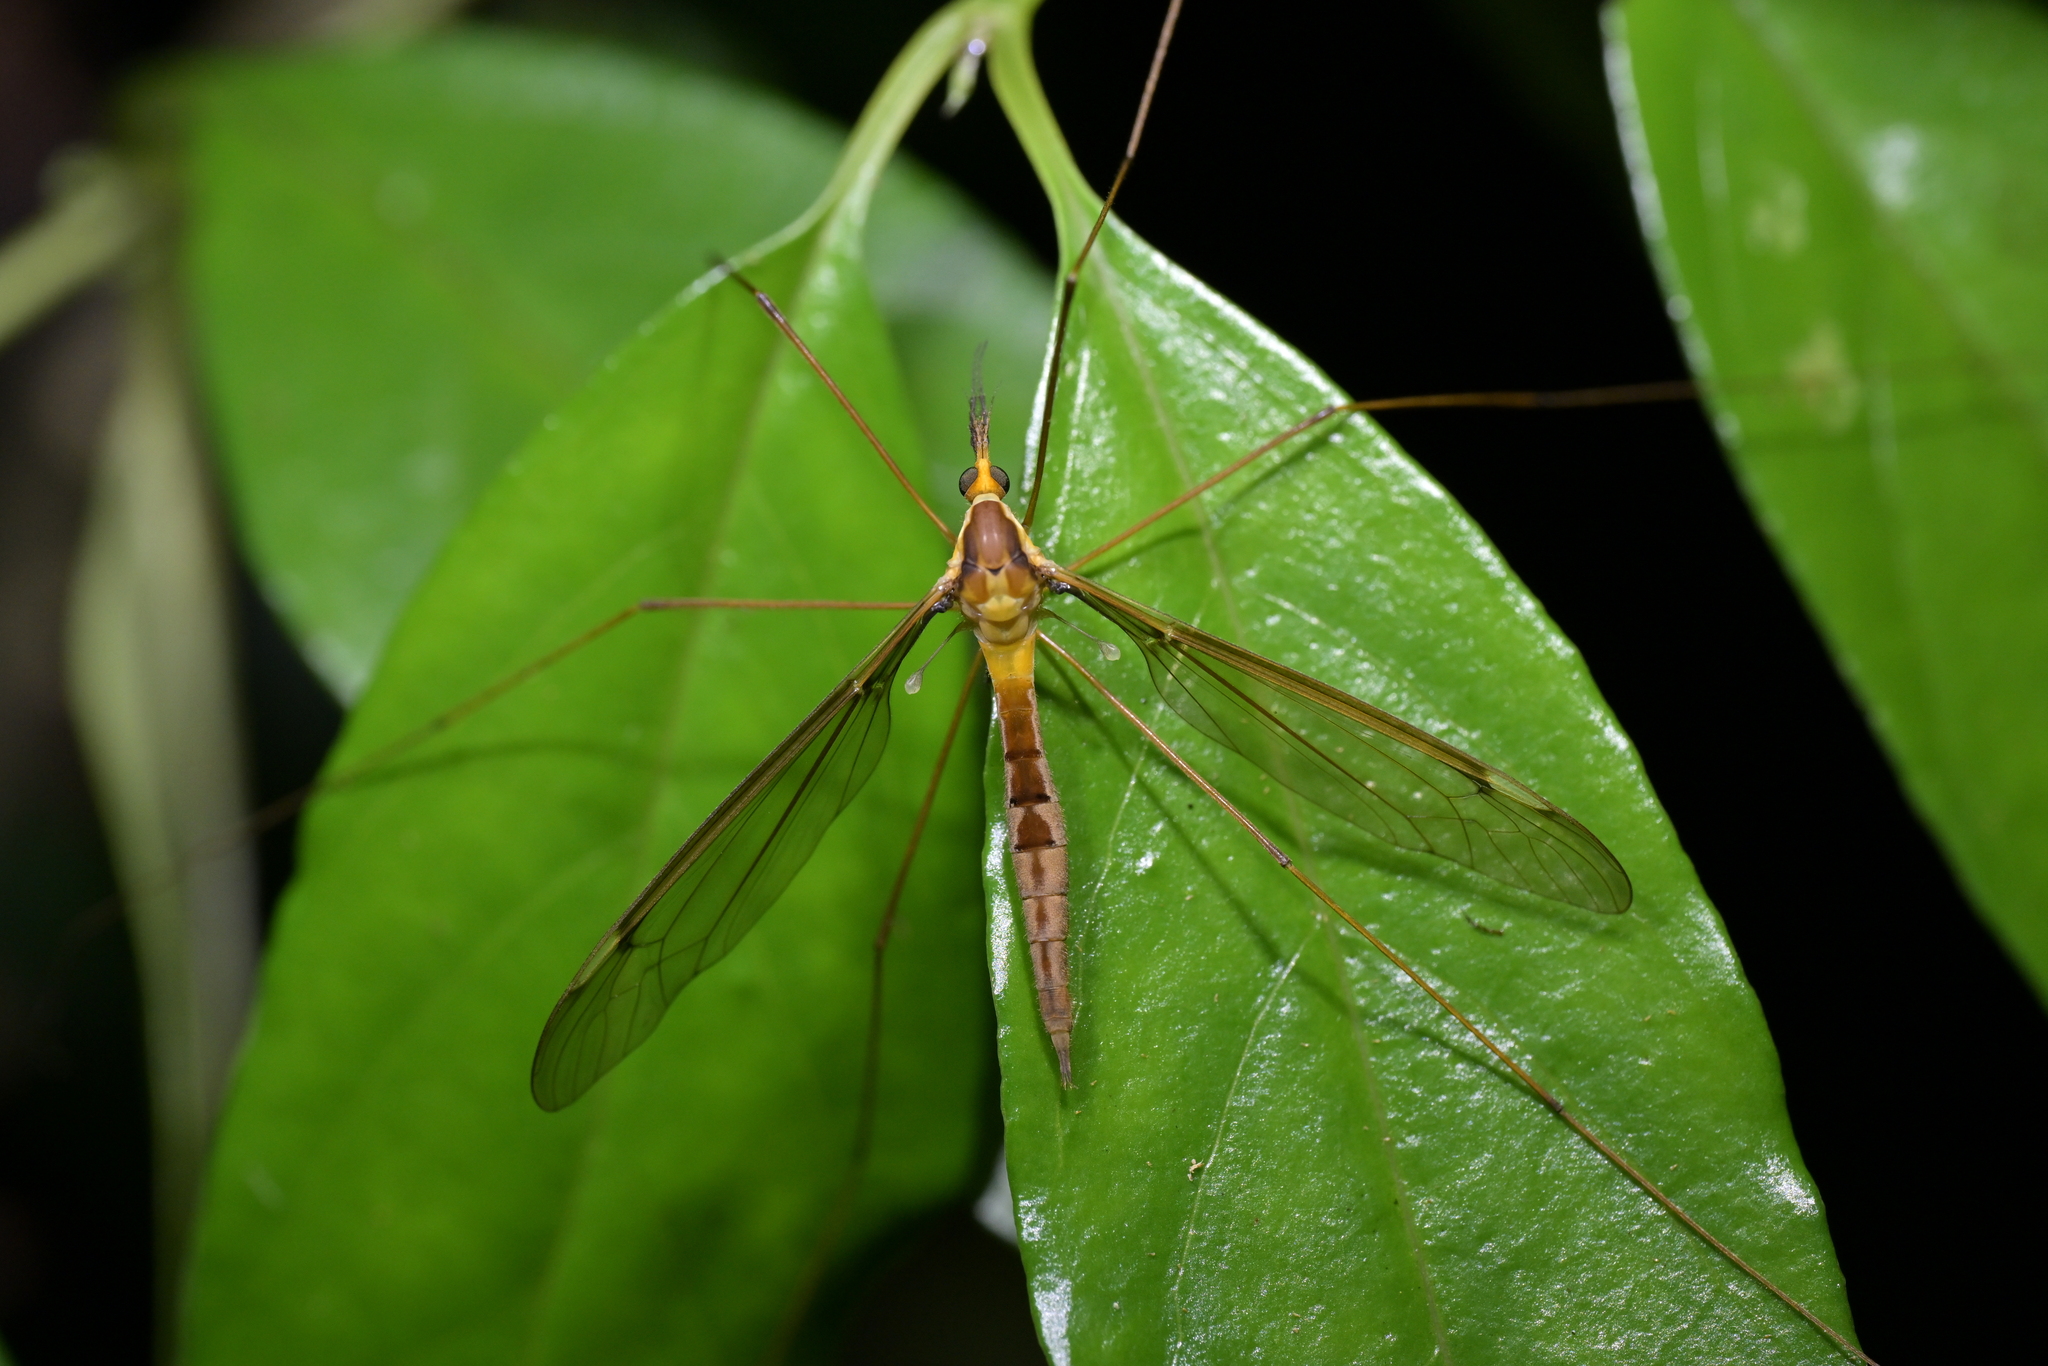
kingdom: Animalia
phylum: Arthropoda
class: Insecta
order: Diptera
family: Tipulidae
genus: Leptotarsus
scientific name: Leptotarsus albistigma
